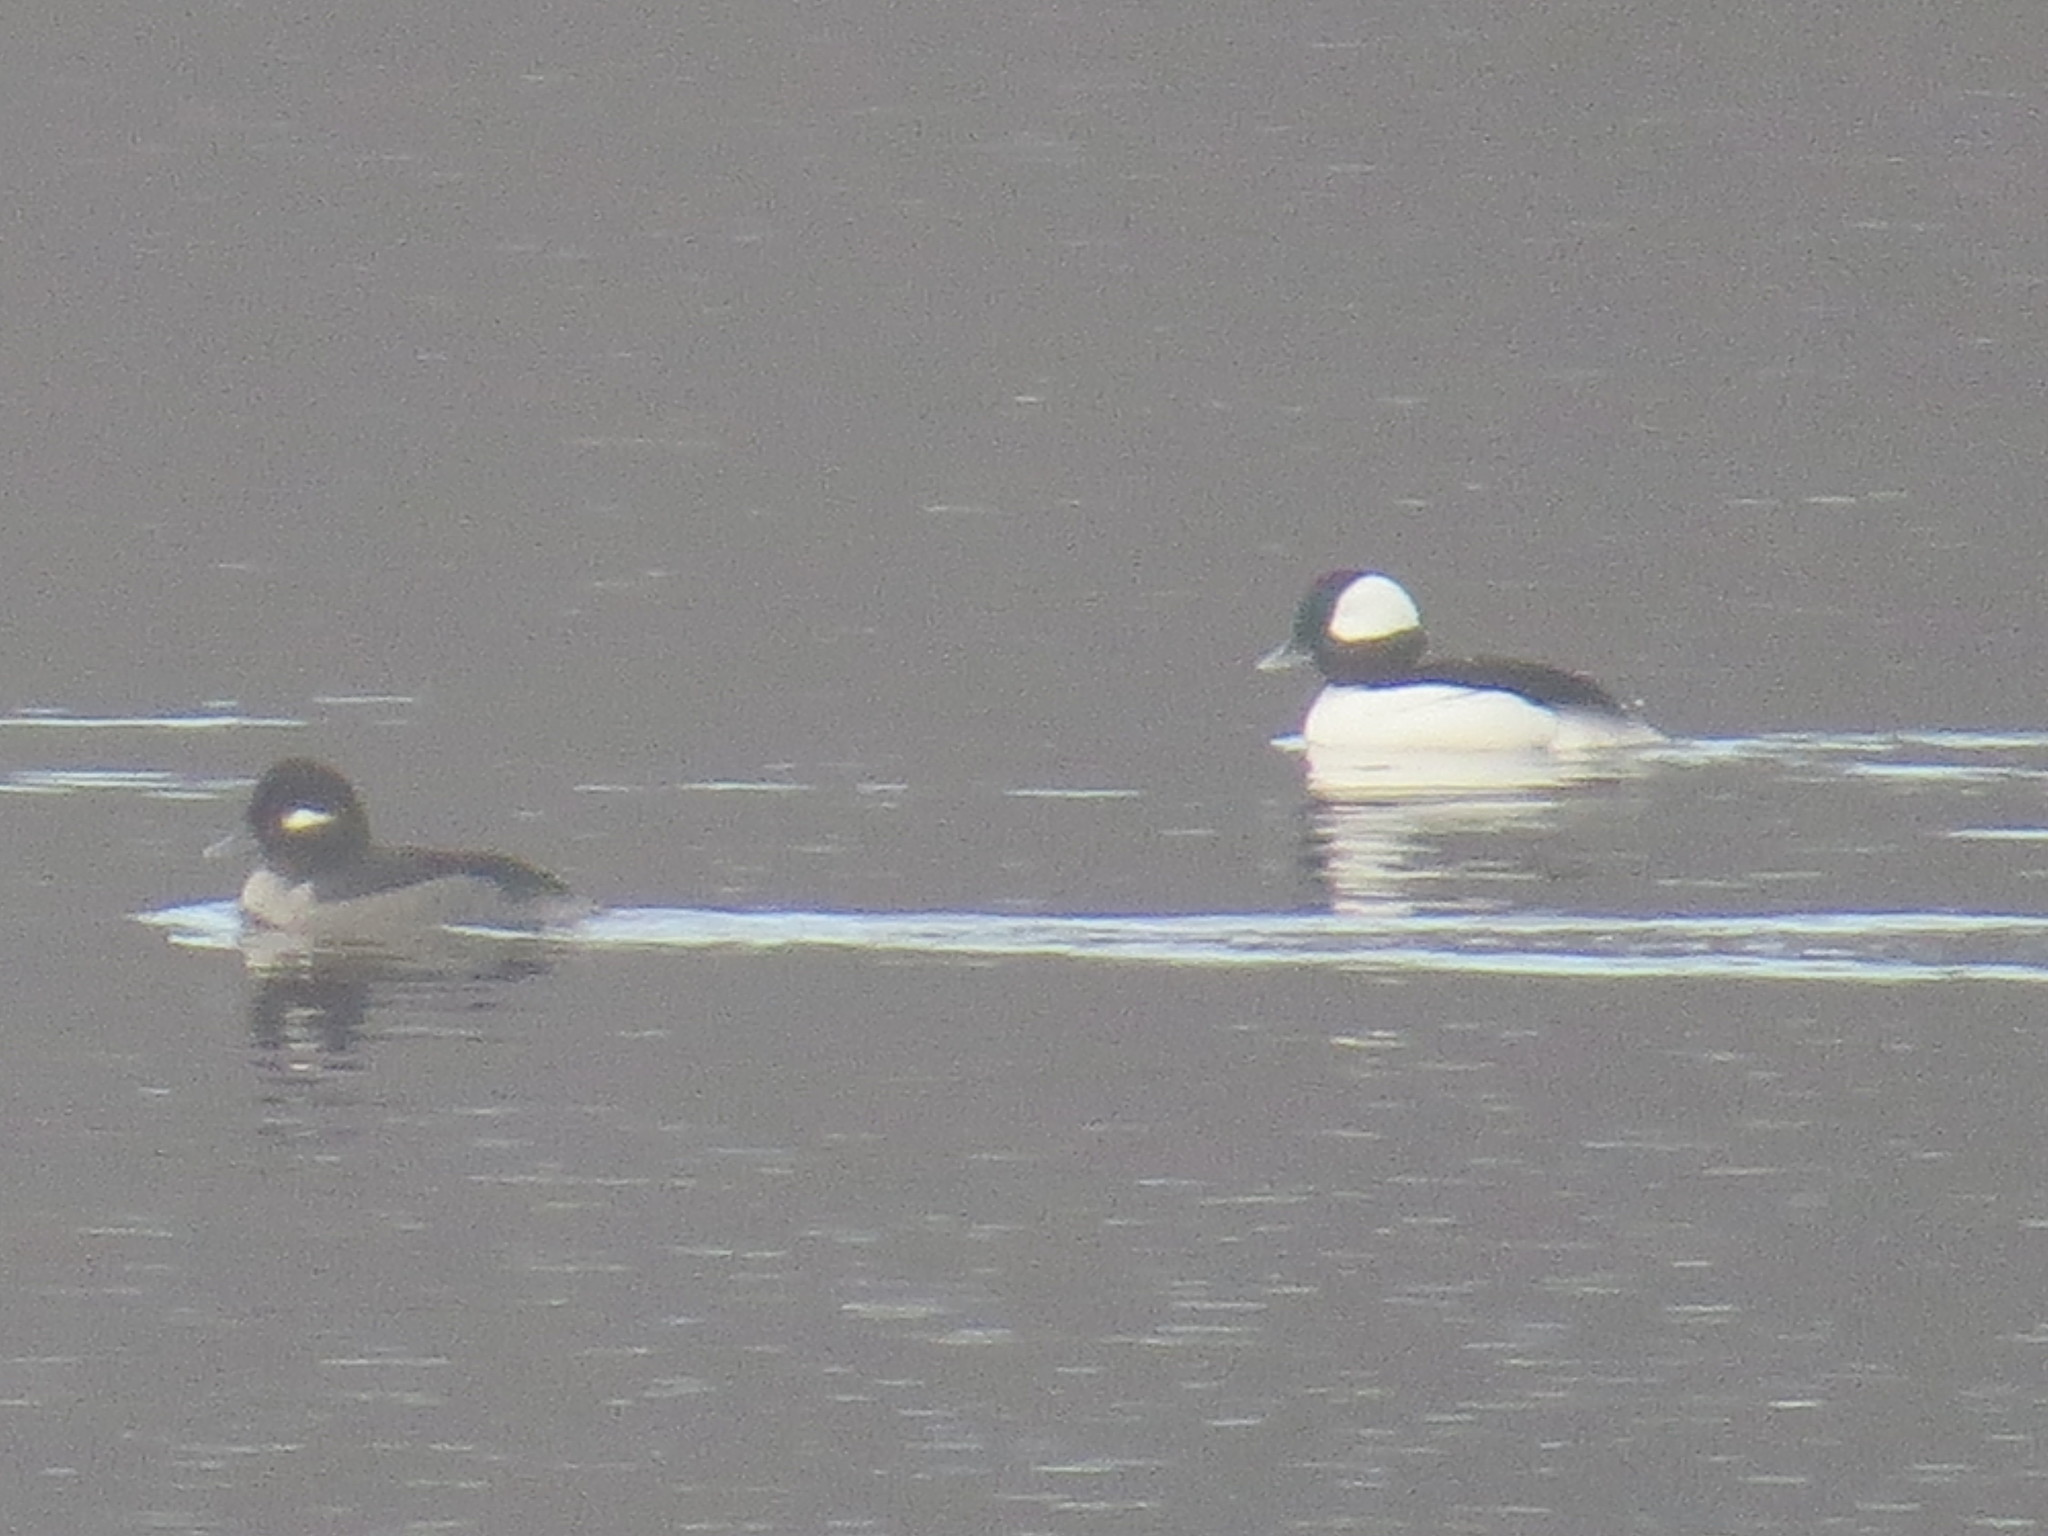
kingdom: Animalia
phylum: Chordata
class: Aves
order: Anseriformes
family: Anatidae
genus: Bucephala
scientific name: Bucephala albeola
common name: Bufflehead
